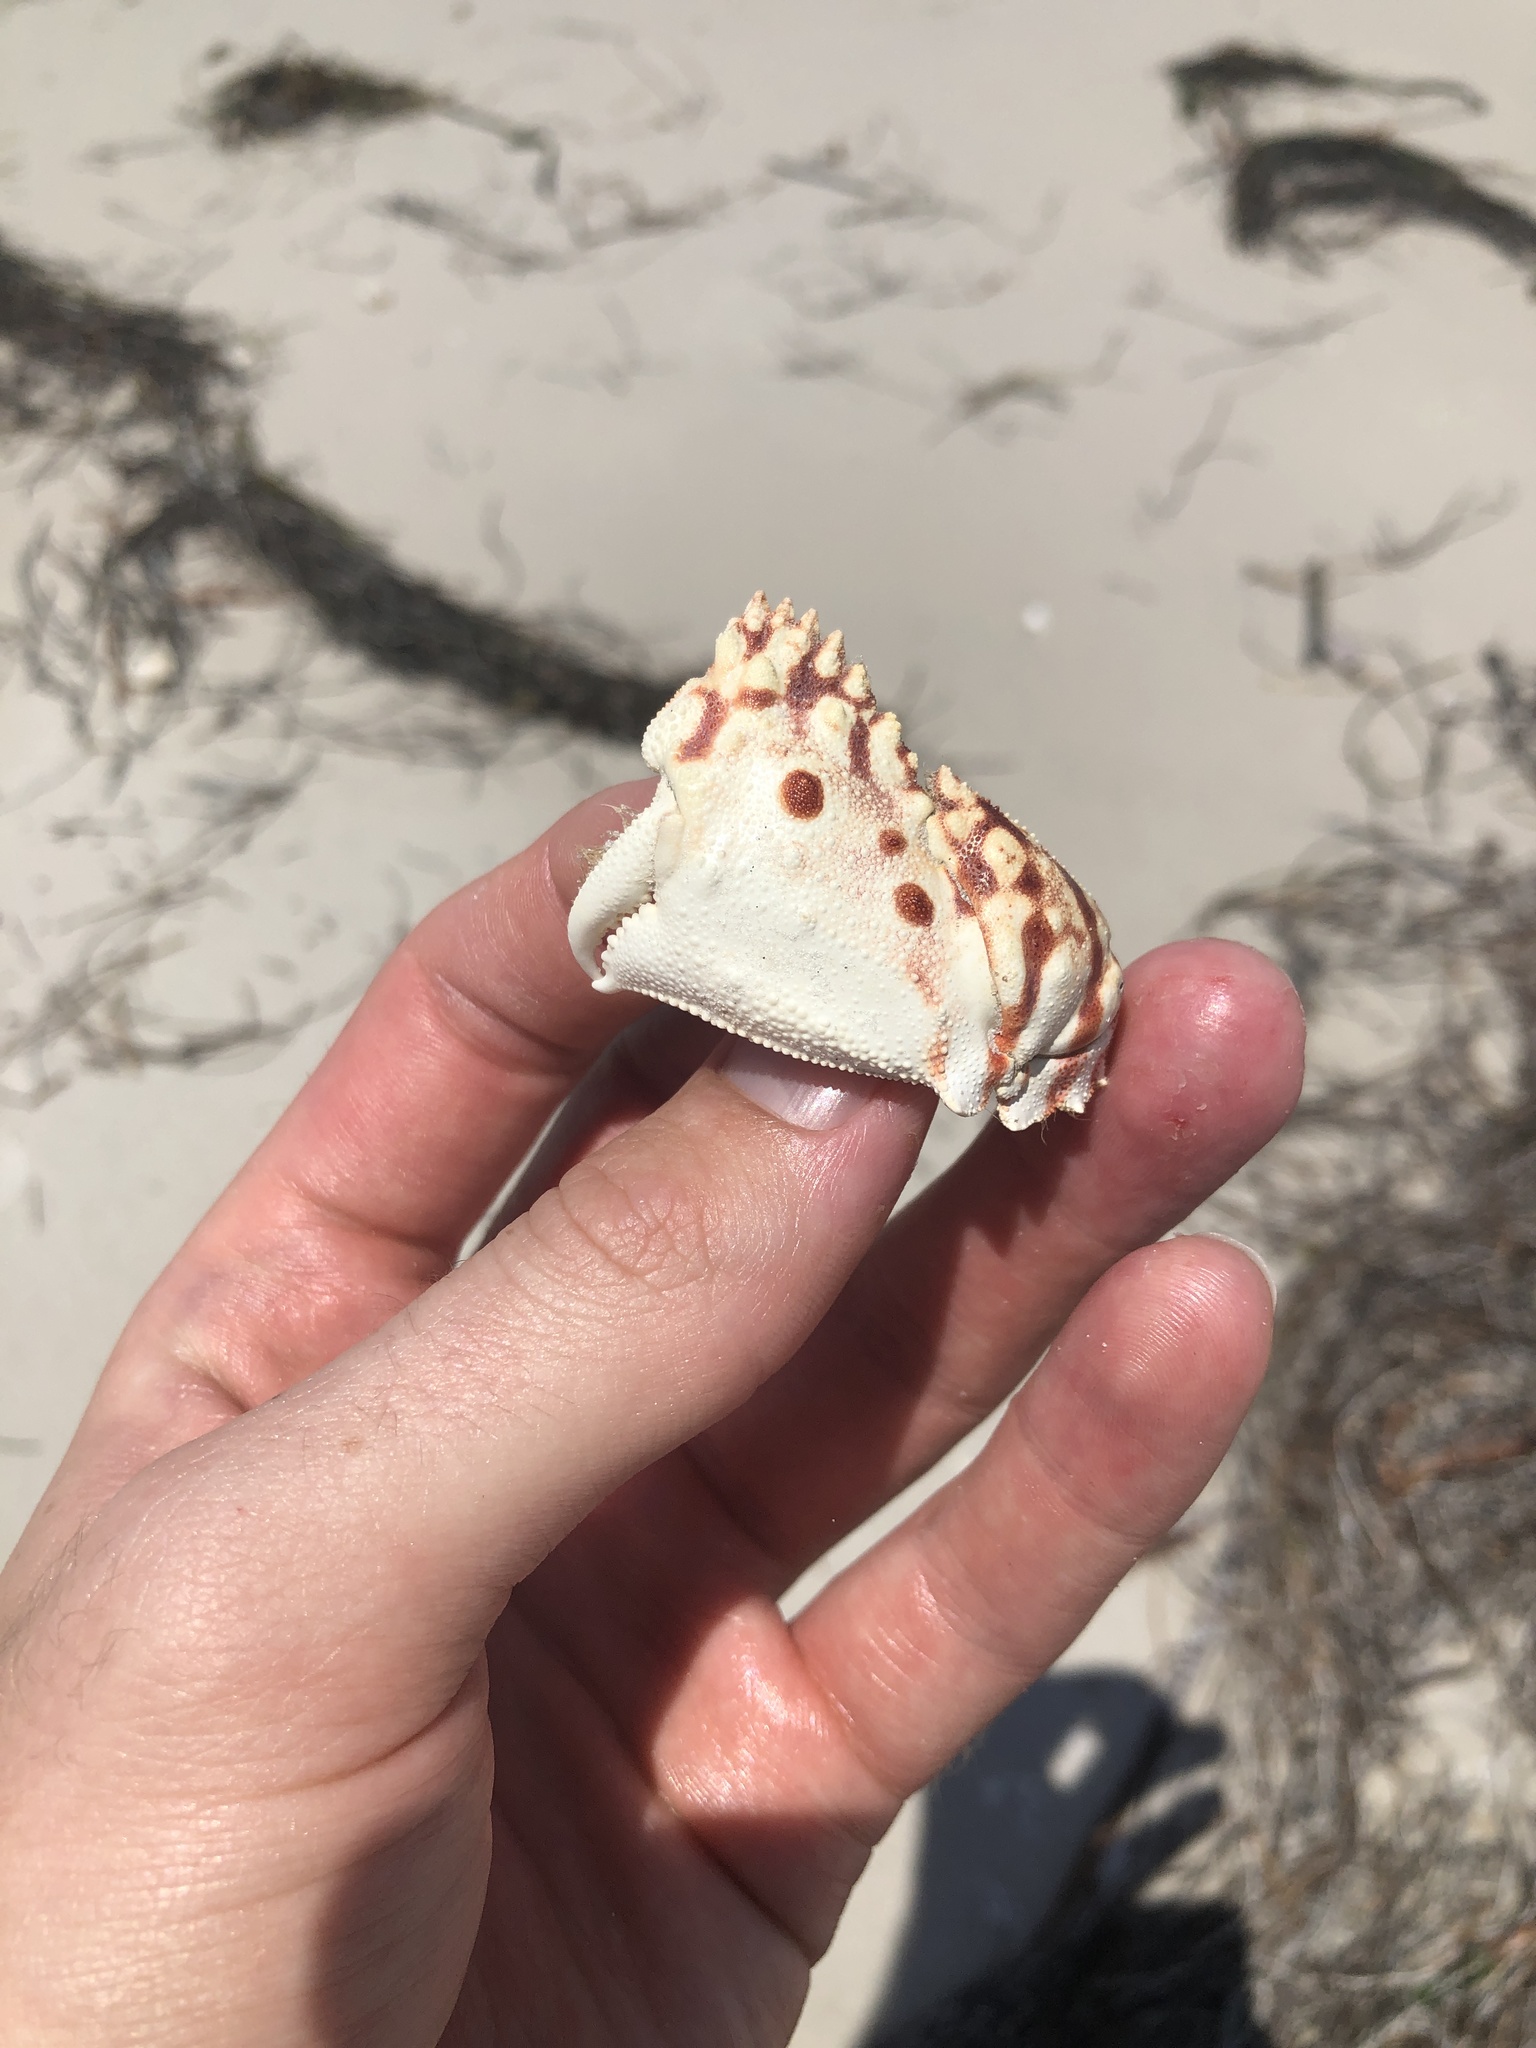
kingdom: Animalia
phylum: Arthropoda
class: Malacostraca
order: Decapoda
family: Calappidae
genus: Calappa
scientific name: Calappa flammea
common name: Flamed box crab
